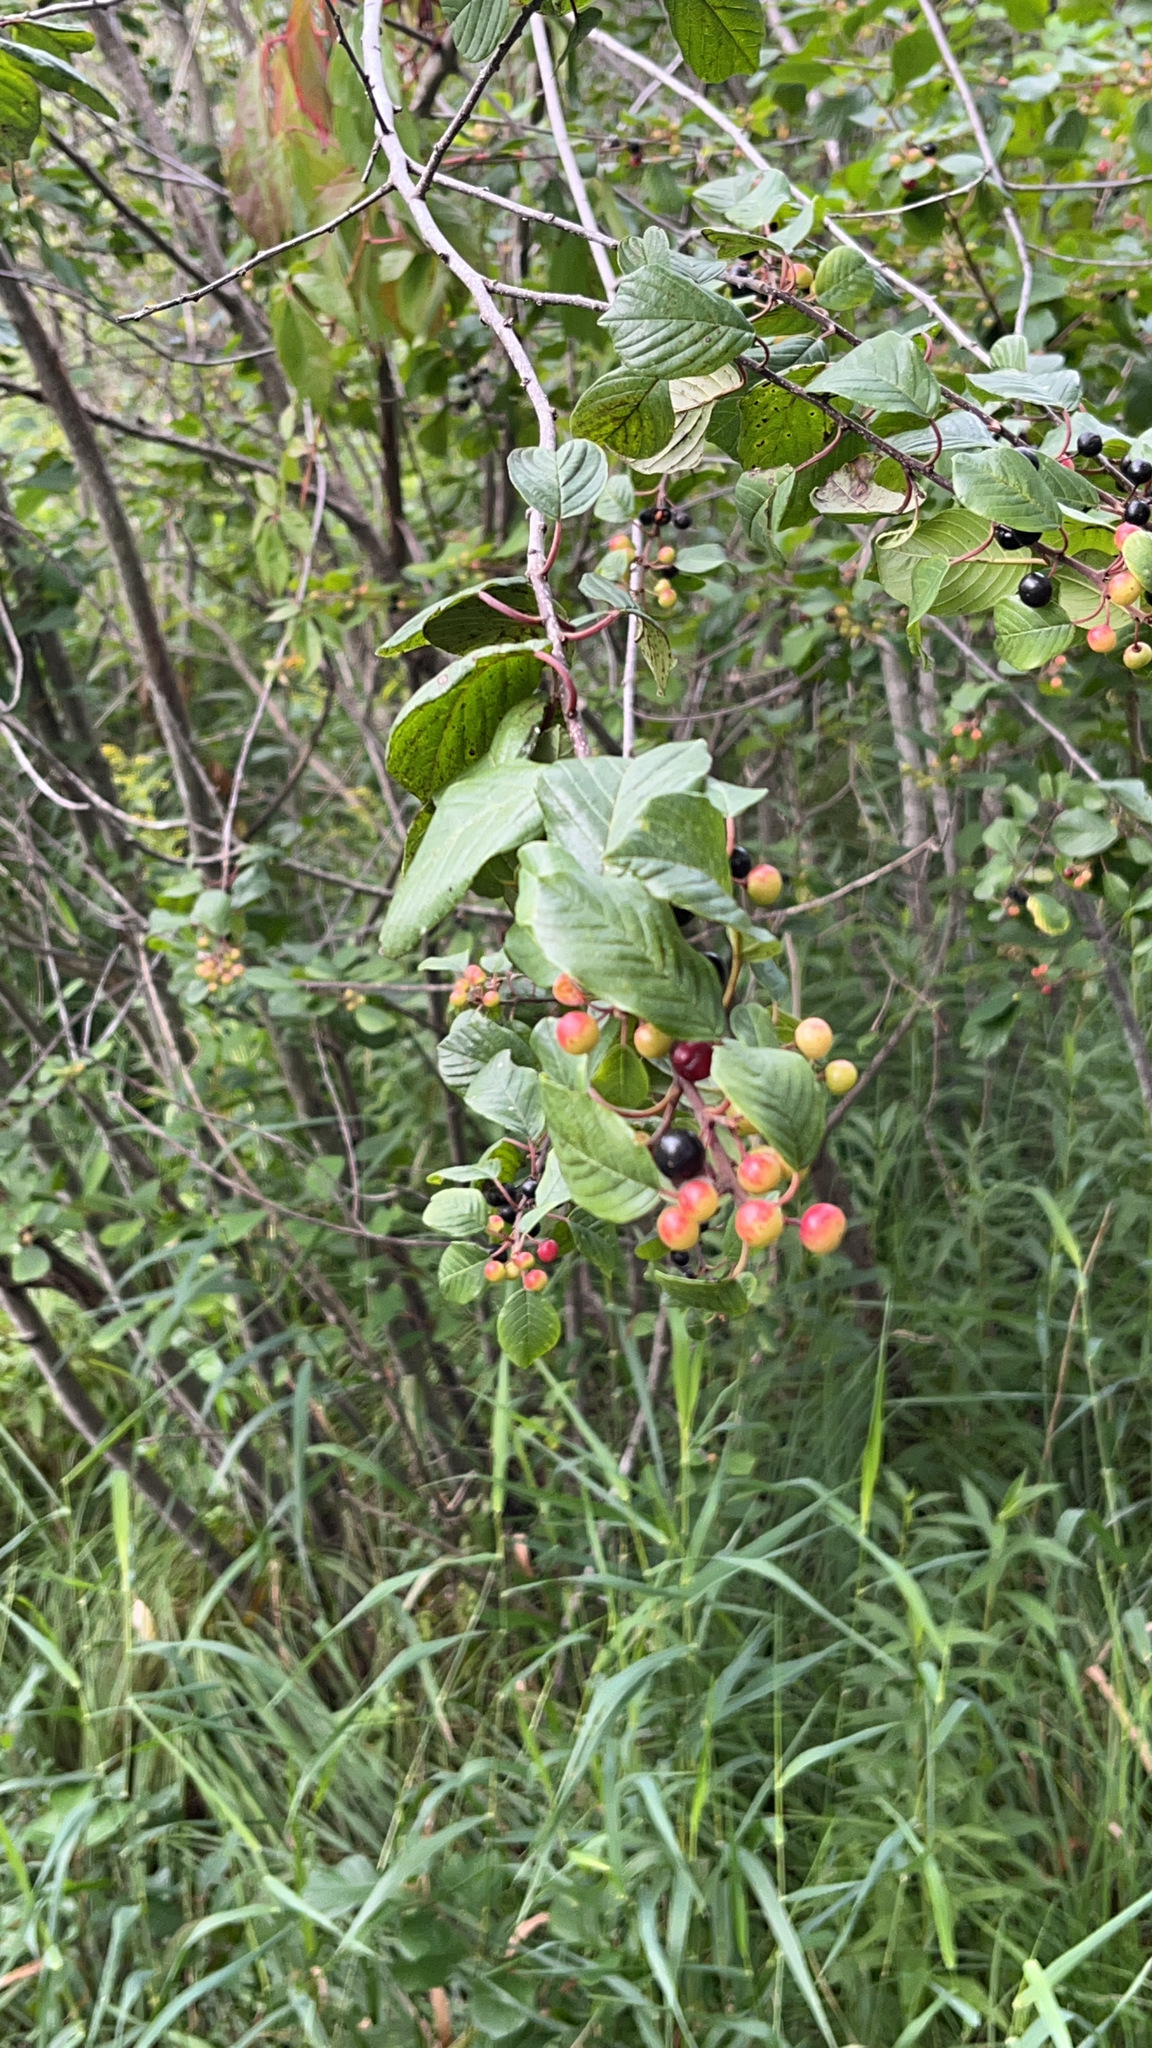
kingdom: Plantae
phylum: Tracheophyta
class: Magnoliopsida
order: Rosales
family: Rhamnaceae
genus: Frangula
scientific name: Frangula alnus
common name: Alder buckthorn
